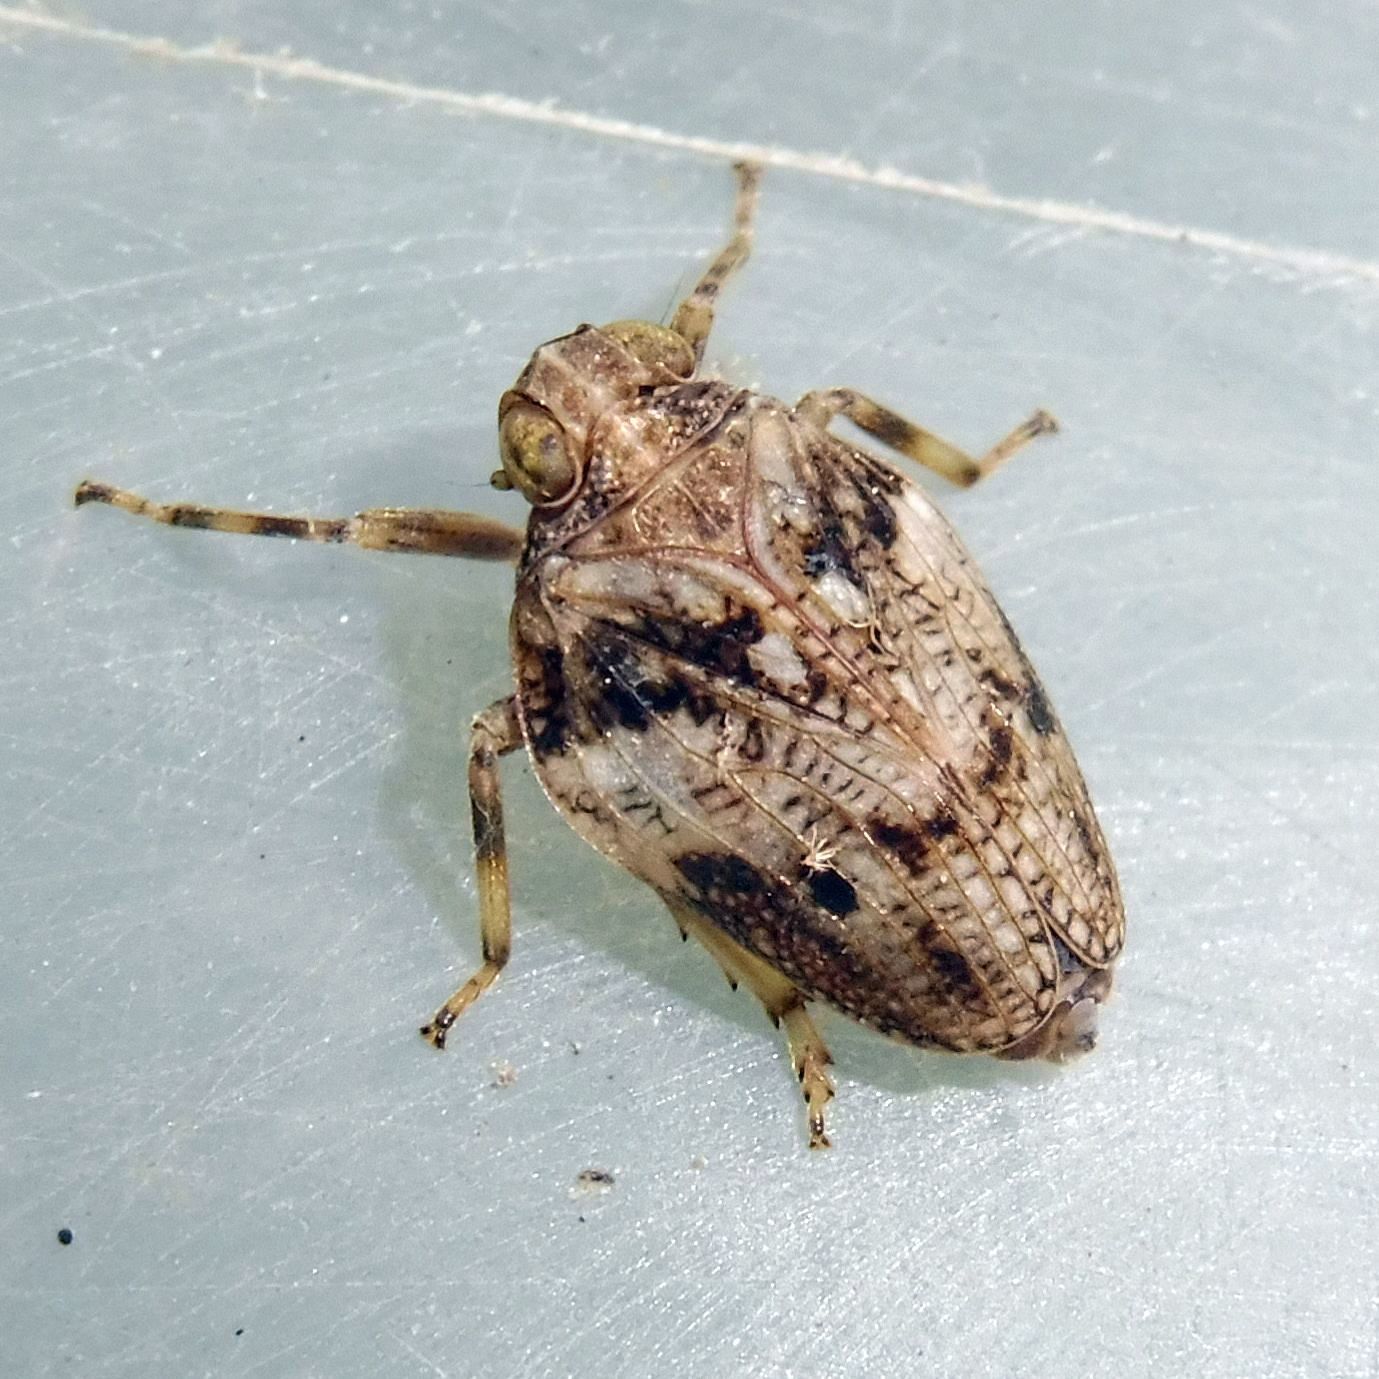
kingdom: Animalia
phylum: Arthropoda
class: Insecta
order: Hemiptera
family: Issidae
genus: Issus
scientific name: Issus coleoptratus
